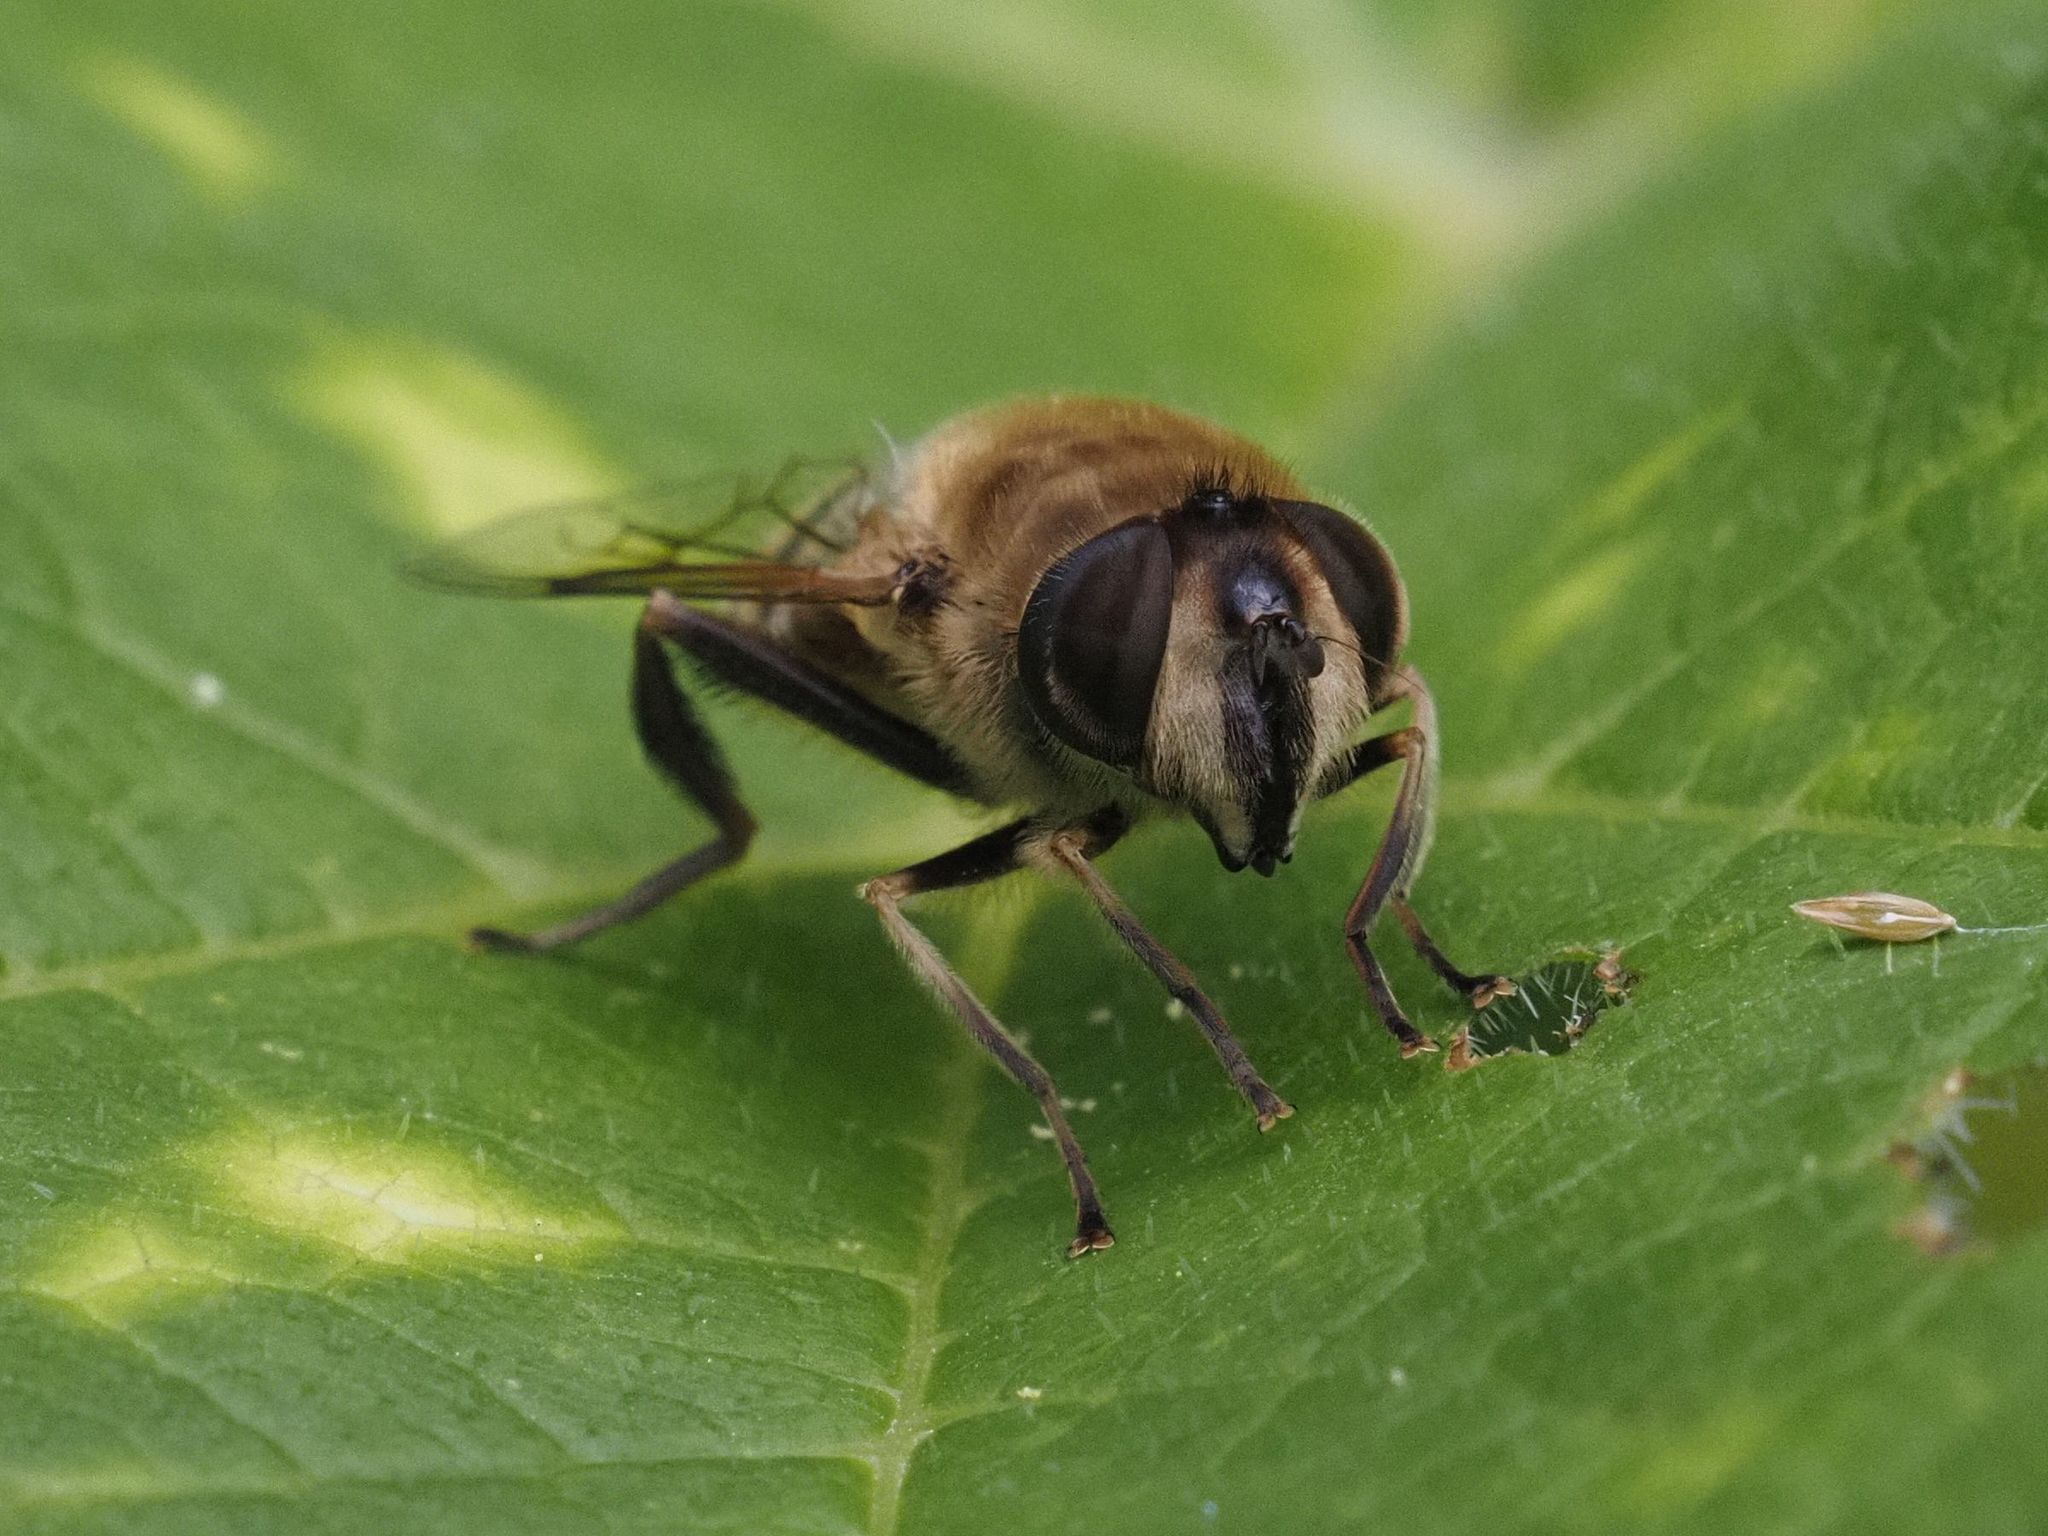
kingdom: Animalia
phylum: Arthropoda
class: Insecta
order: Diptera
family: Syrphidae
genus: Eristalis
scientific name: Eristalis tenax
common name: Drone fly
